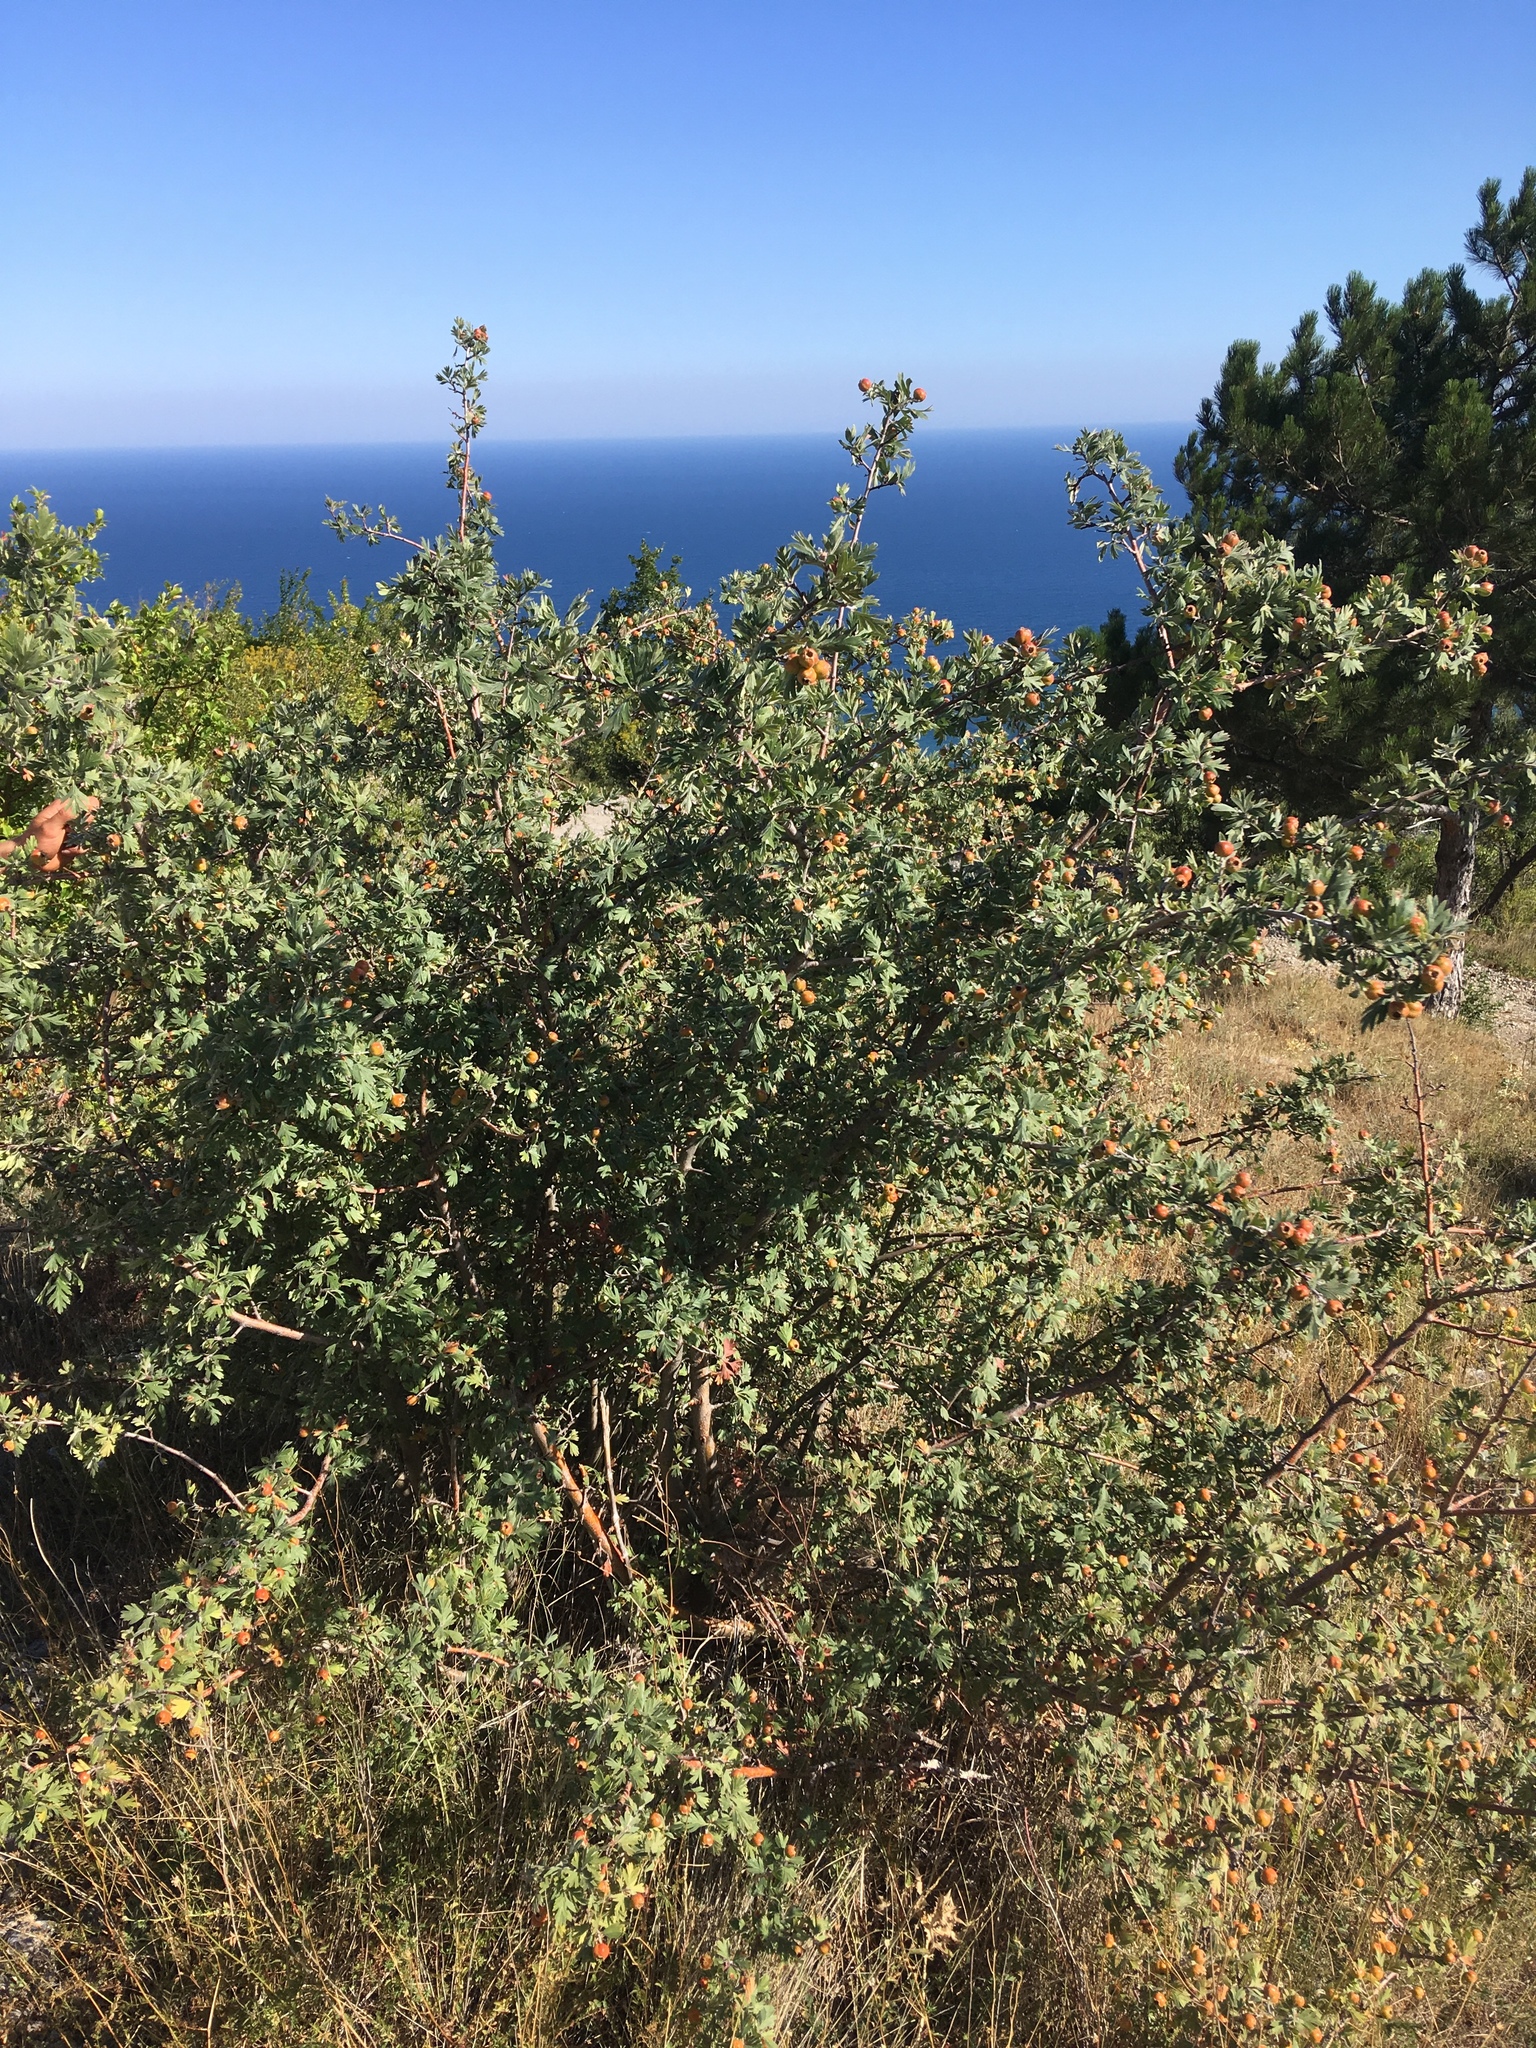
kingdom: Plantae
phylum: Tracheophyta
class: Magnoliopsida
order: Rosales
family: Rosaceae
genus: Crataegus
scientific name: Crataegus orientalis
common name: Oriental hawthorn
